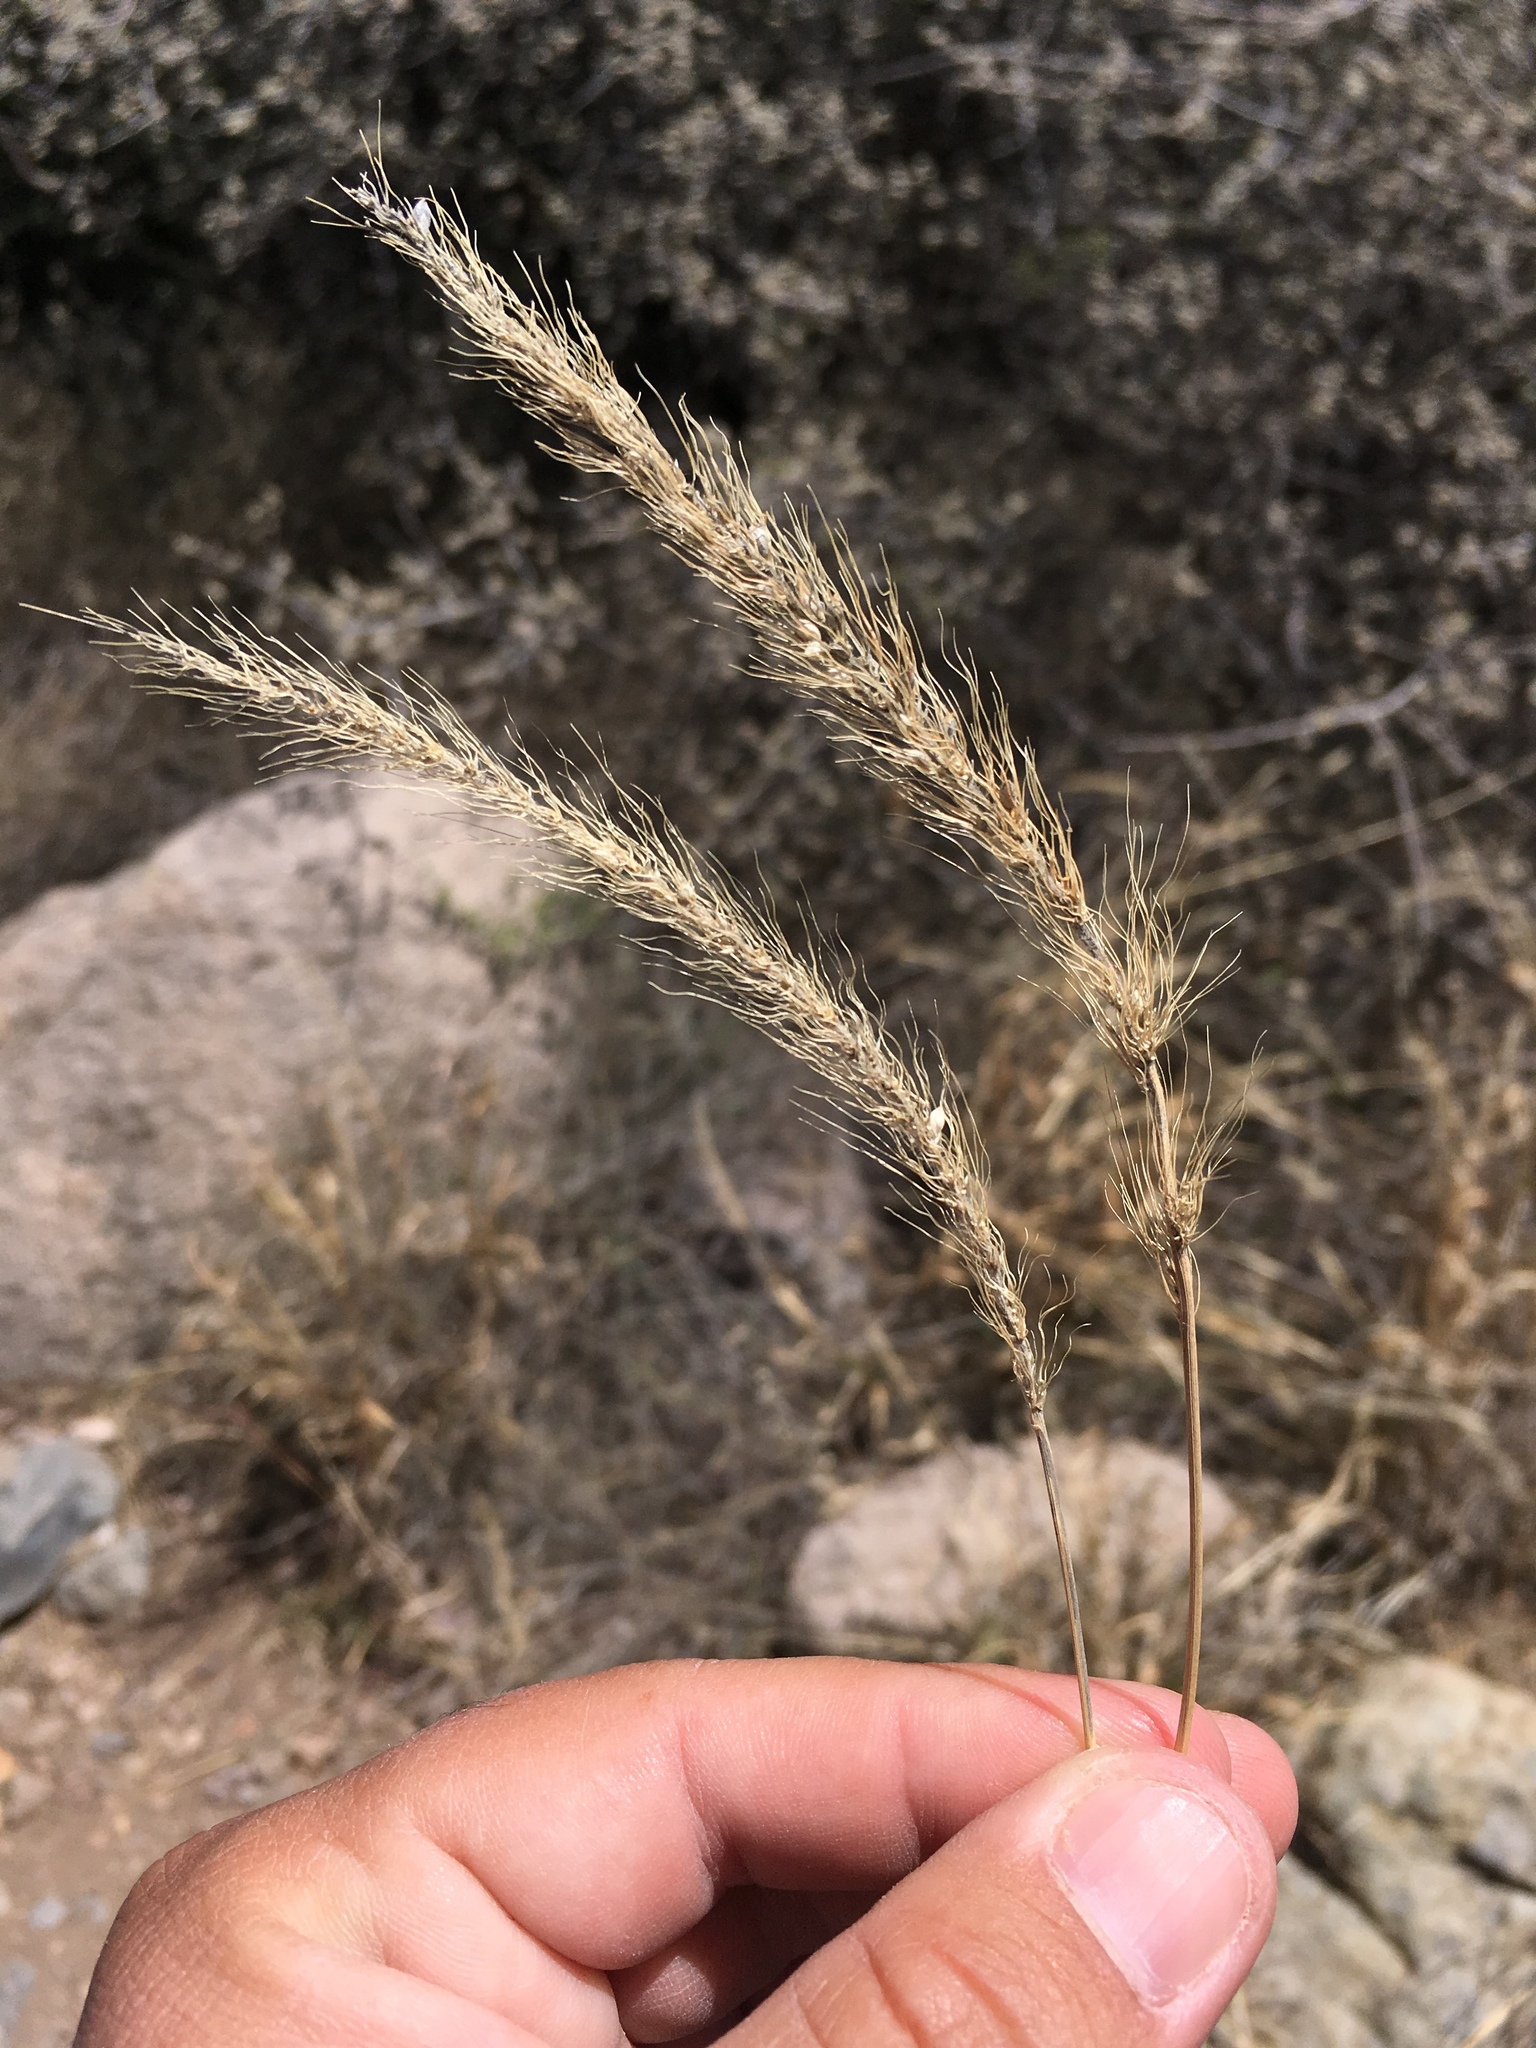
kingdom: Plantae
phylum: Tracheophyta
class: Liliopsida
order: Poales
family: Poaceae
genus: Setaria
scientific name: Setaria leucopila
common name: Plains bristle grass
